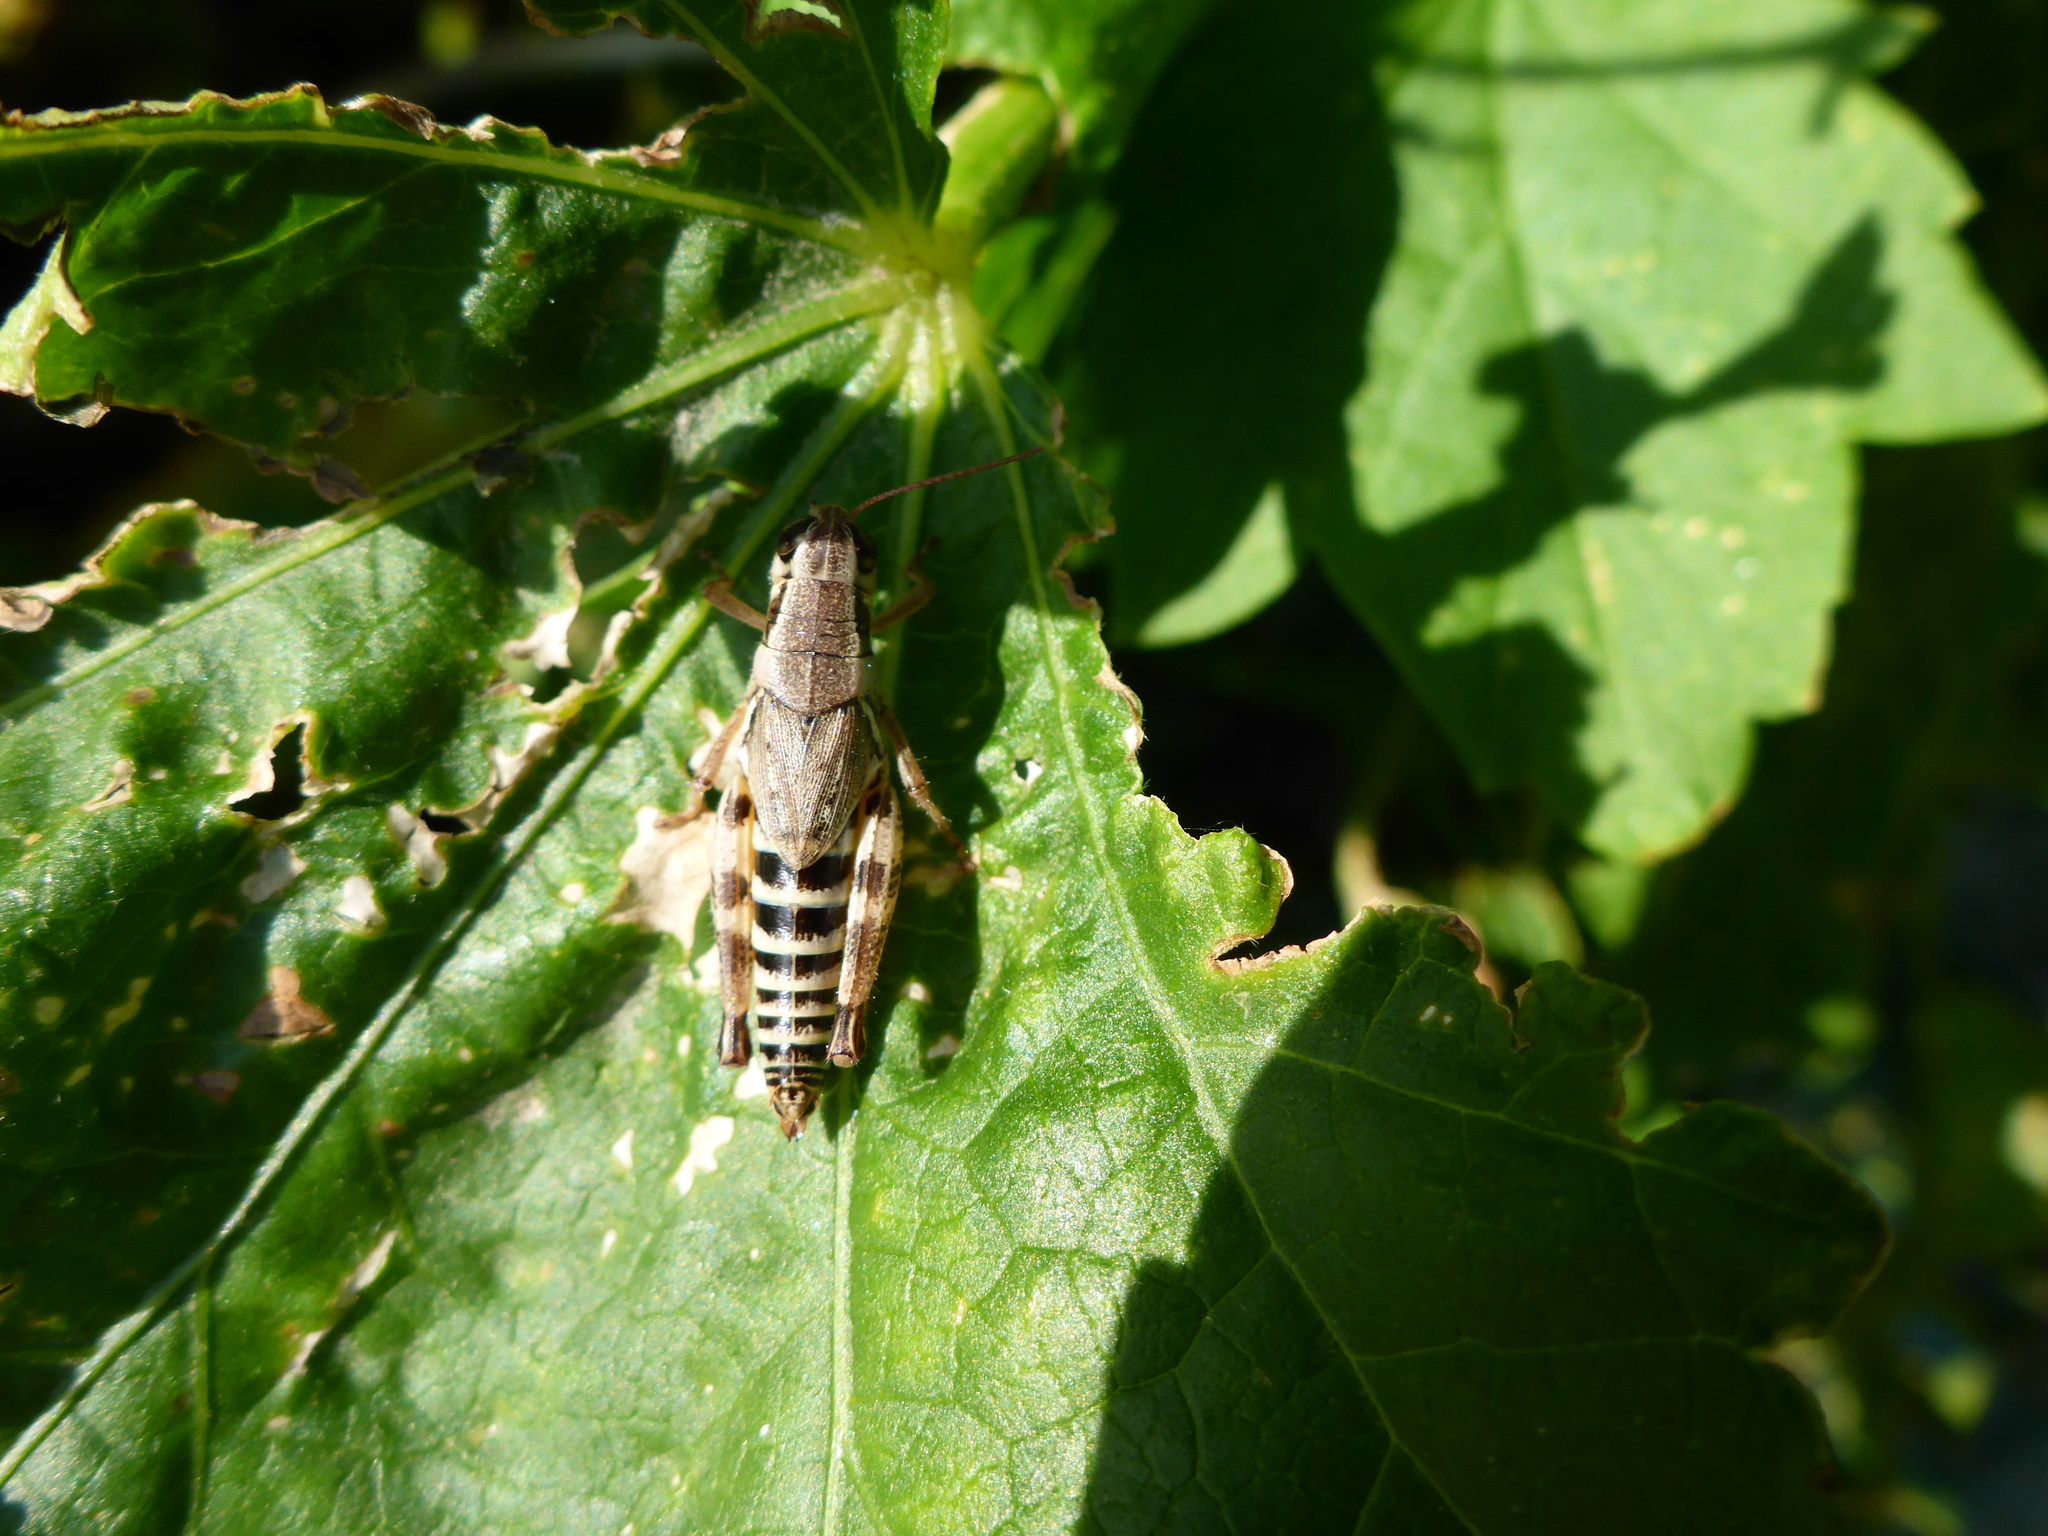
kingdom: Animalia
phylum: Arthropoda
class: Insecta
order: Orthoptera
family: Acrididae
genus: Melanoplus
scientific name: Melanoplus dawsoni
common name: Dawson grasshopper
